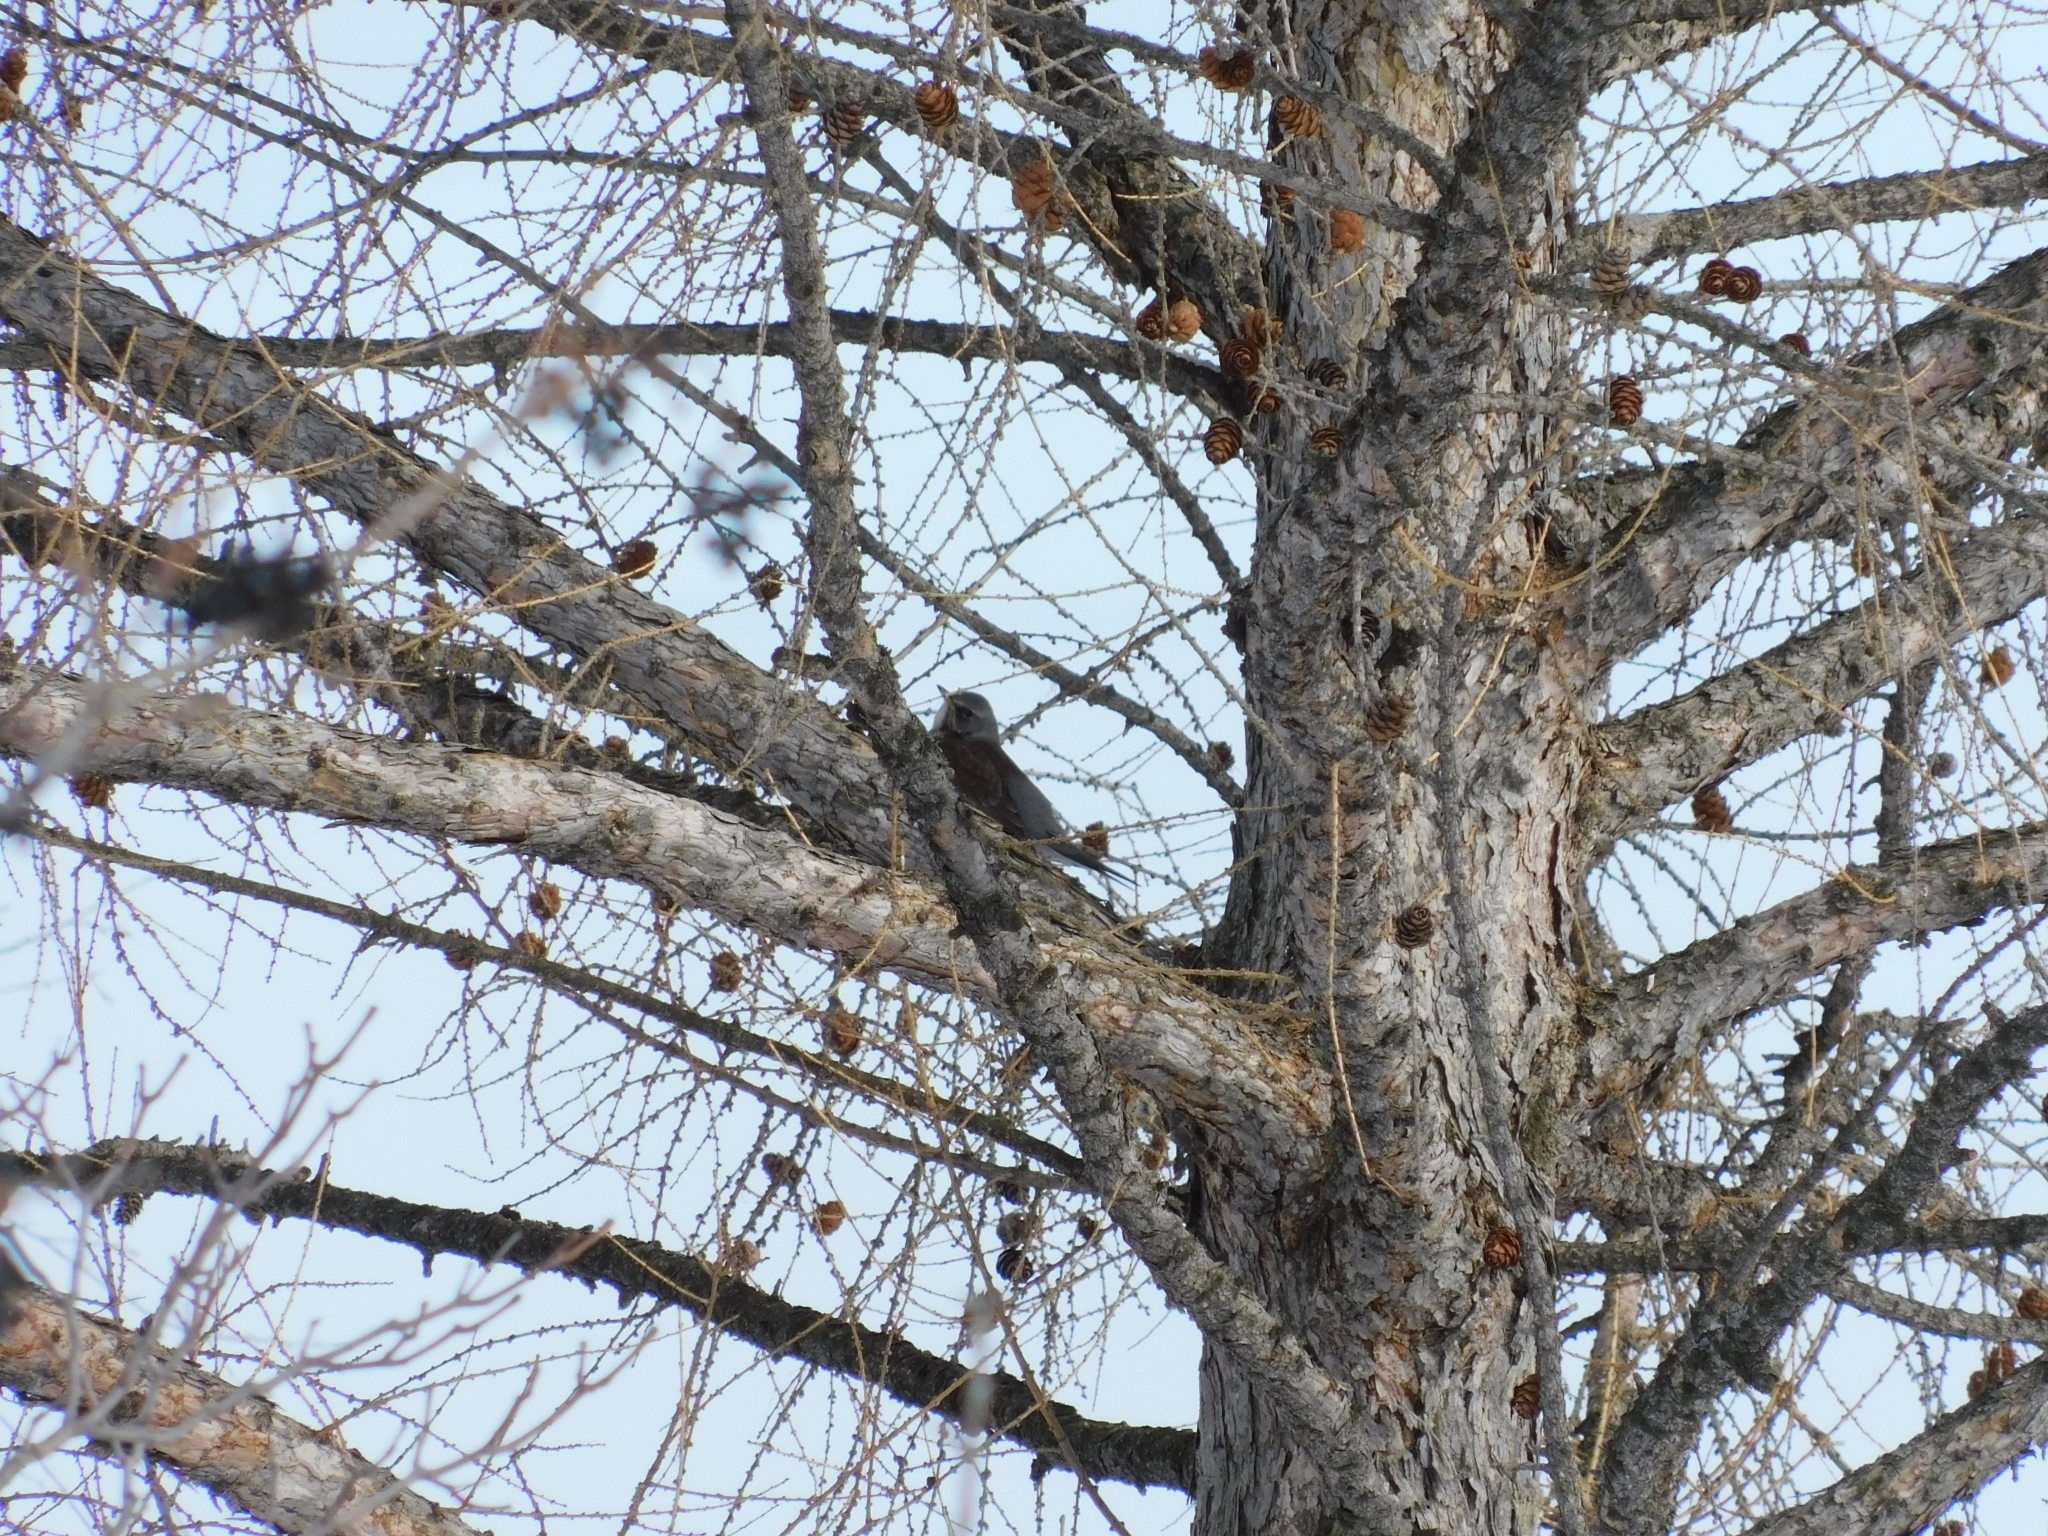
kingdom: Animalia
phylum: Chordata
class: Aves
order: Passeriformes
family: Turdidae
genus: Turdus
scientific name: Turdus pilaris
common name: Fieldfare
